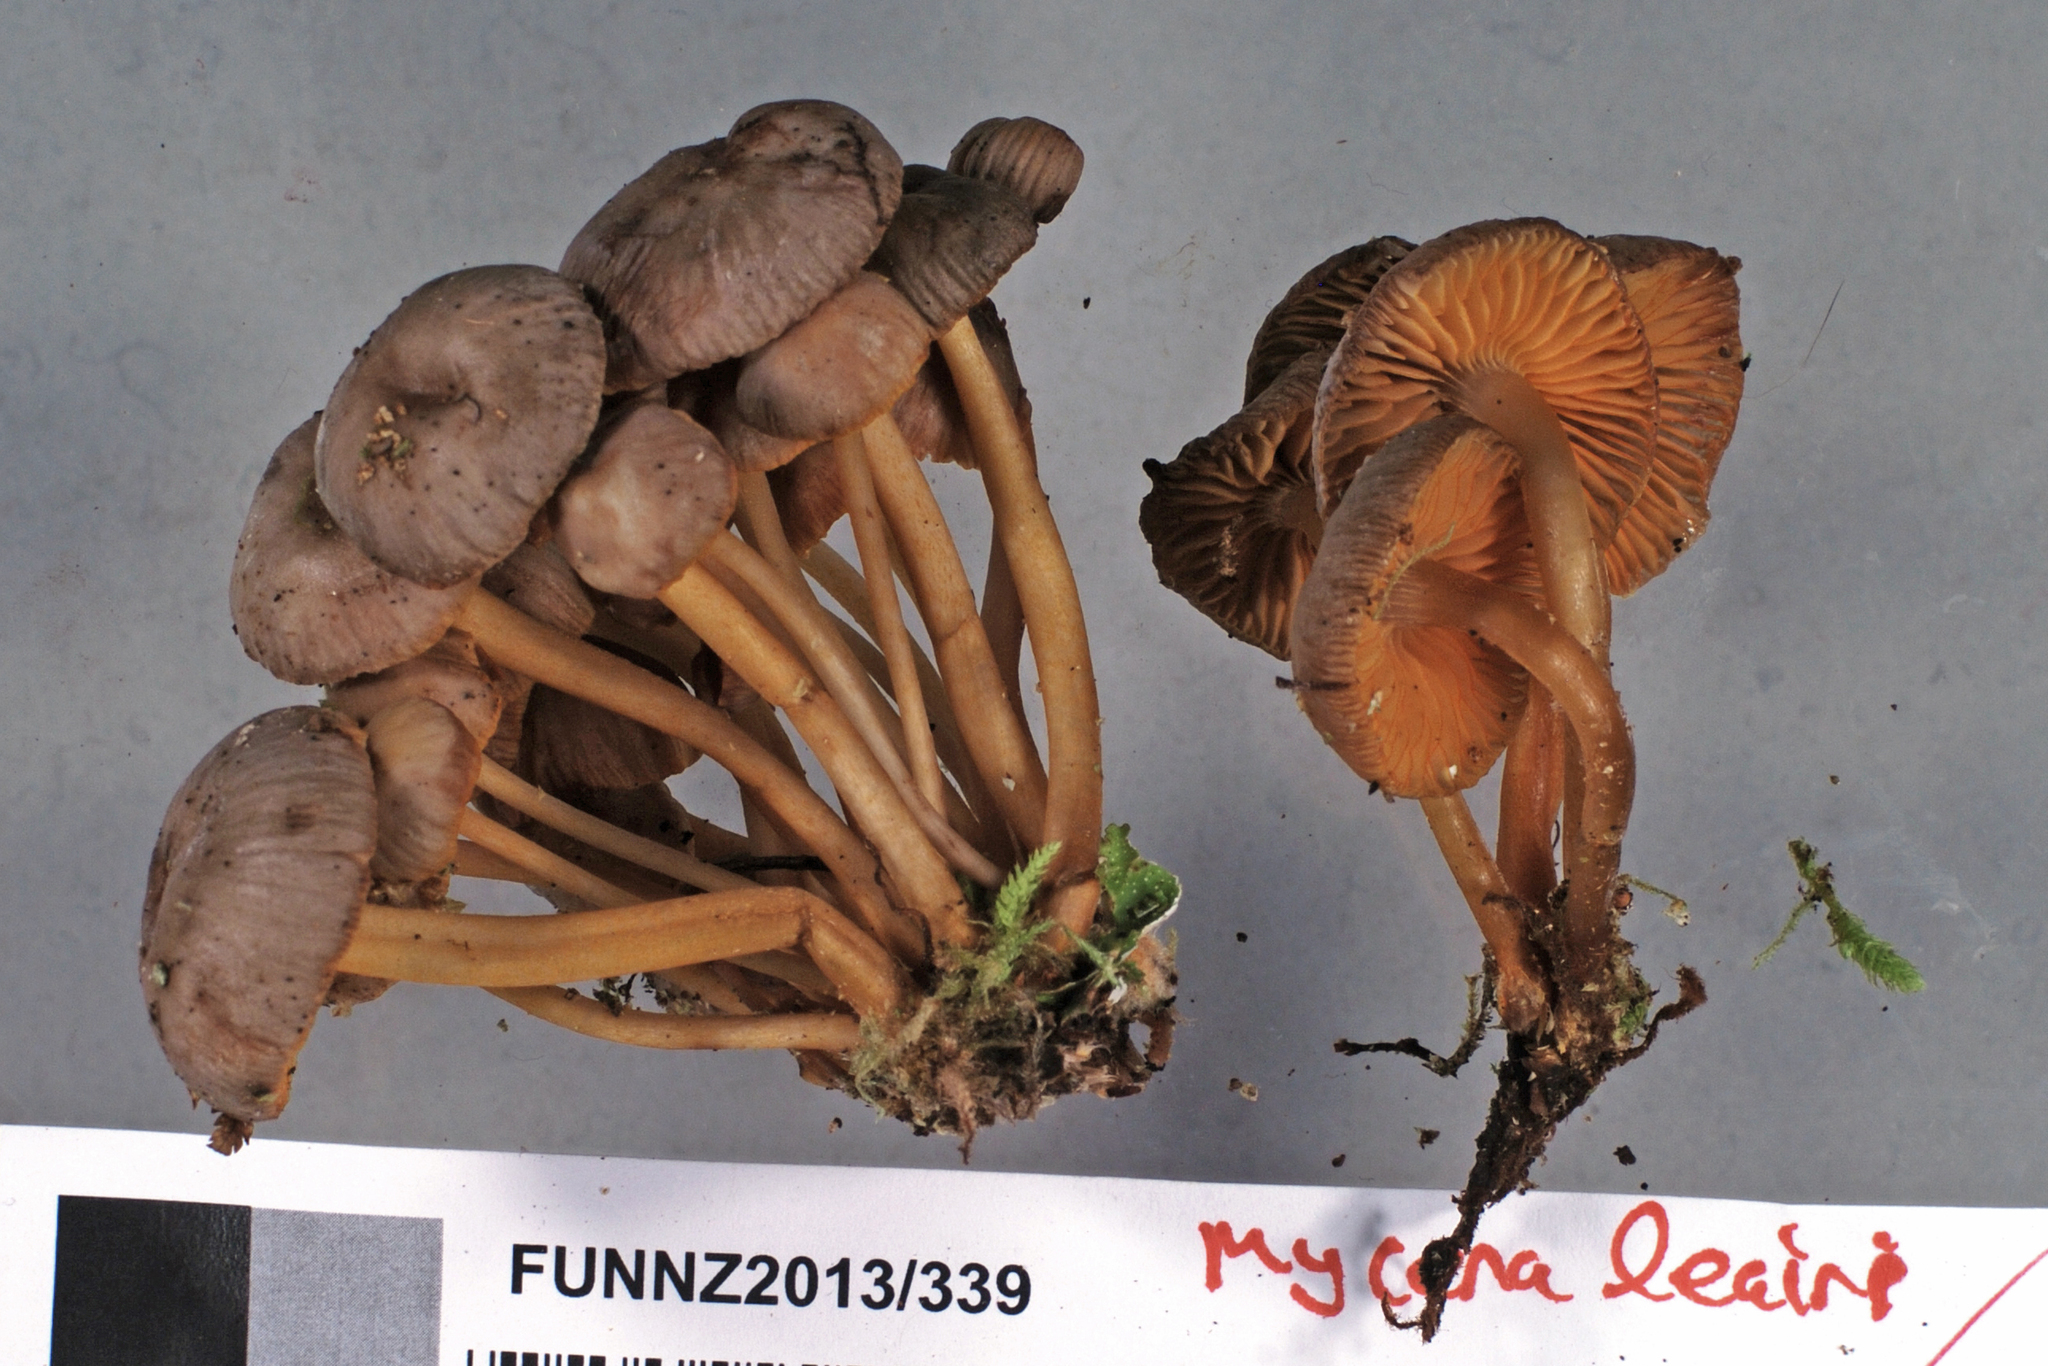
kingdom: Fungi
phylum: Basidiomycota
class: Agaricomycetes
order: Agaricales
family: Mycenaceae
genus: Mycena
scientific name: Mycena leaiana
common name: Orange mycena
